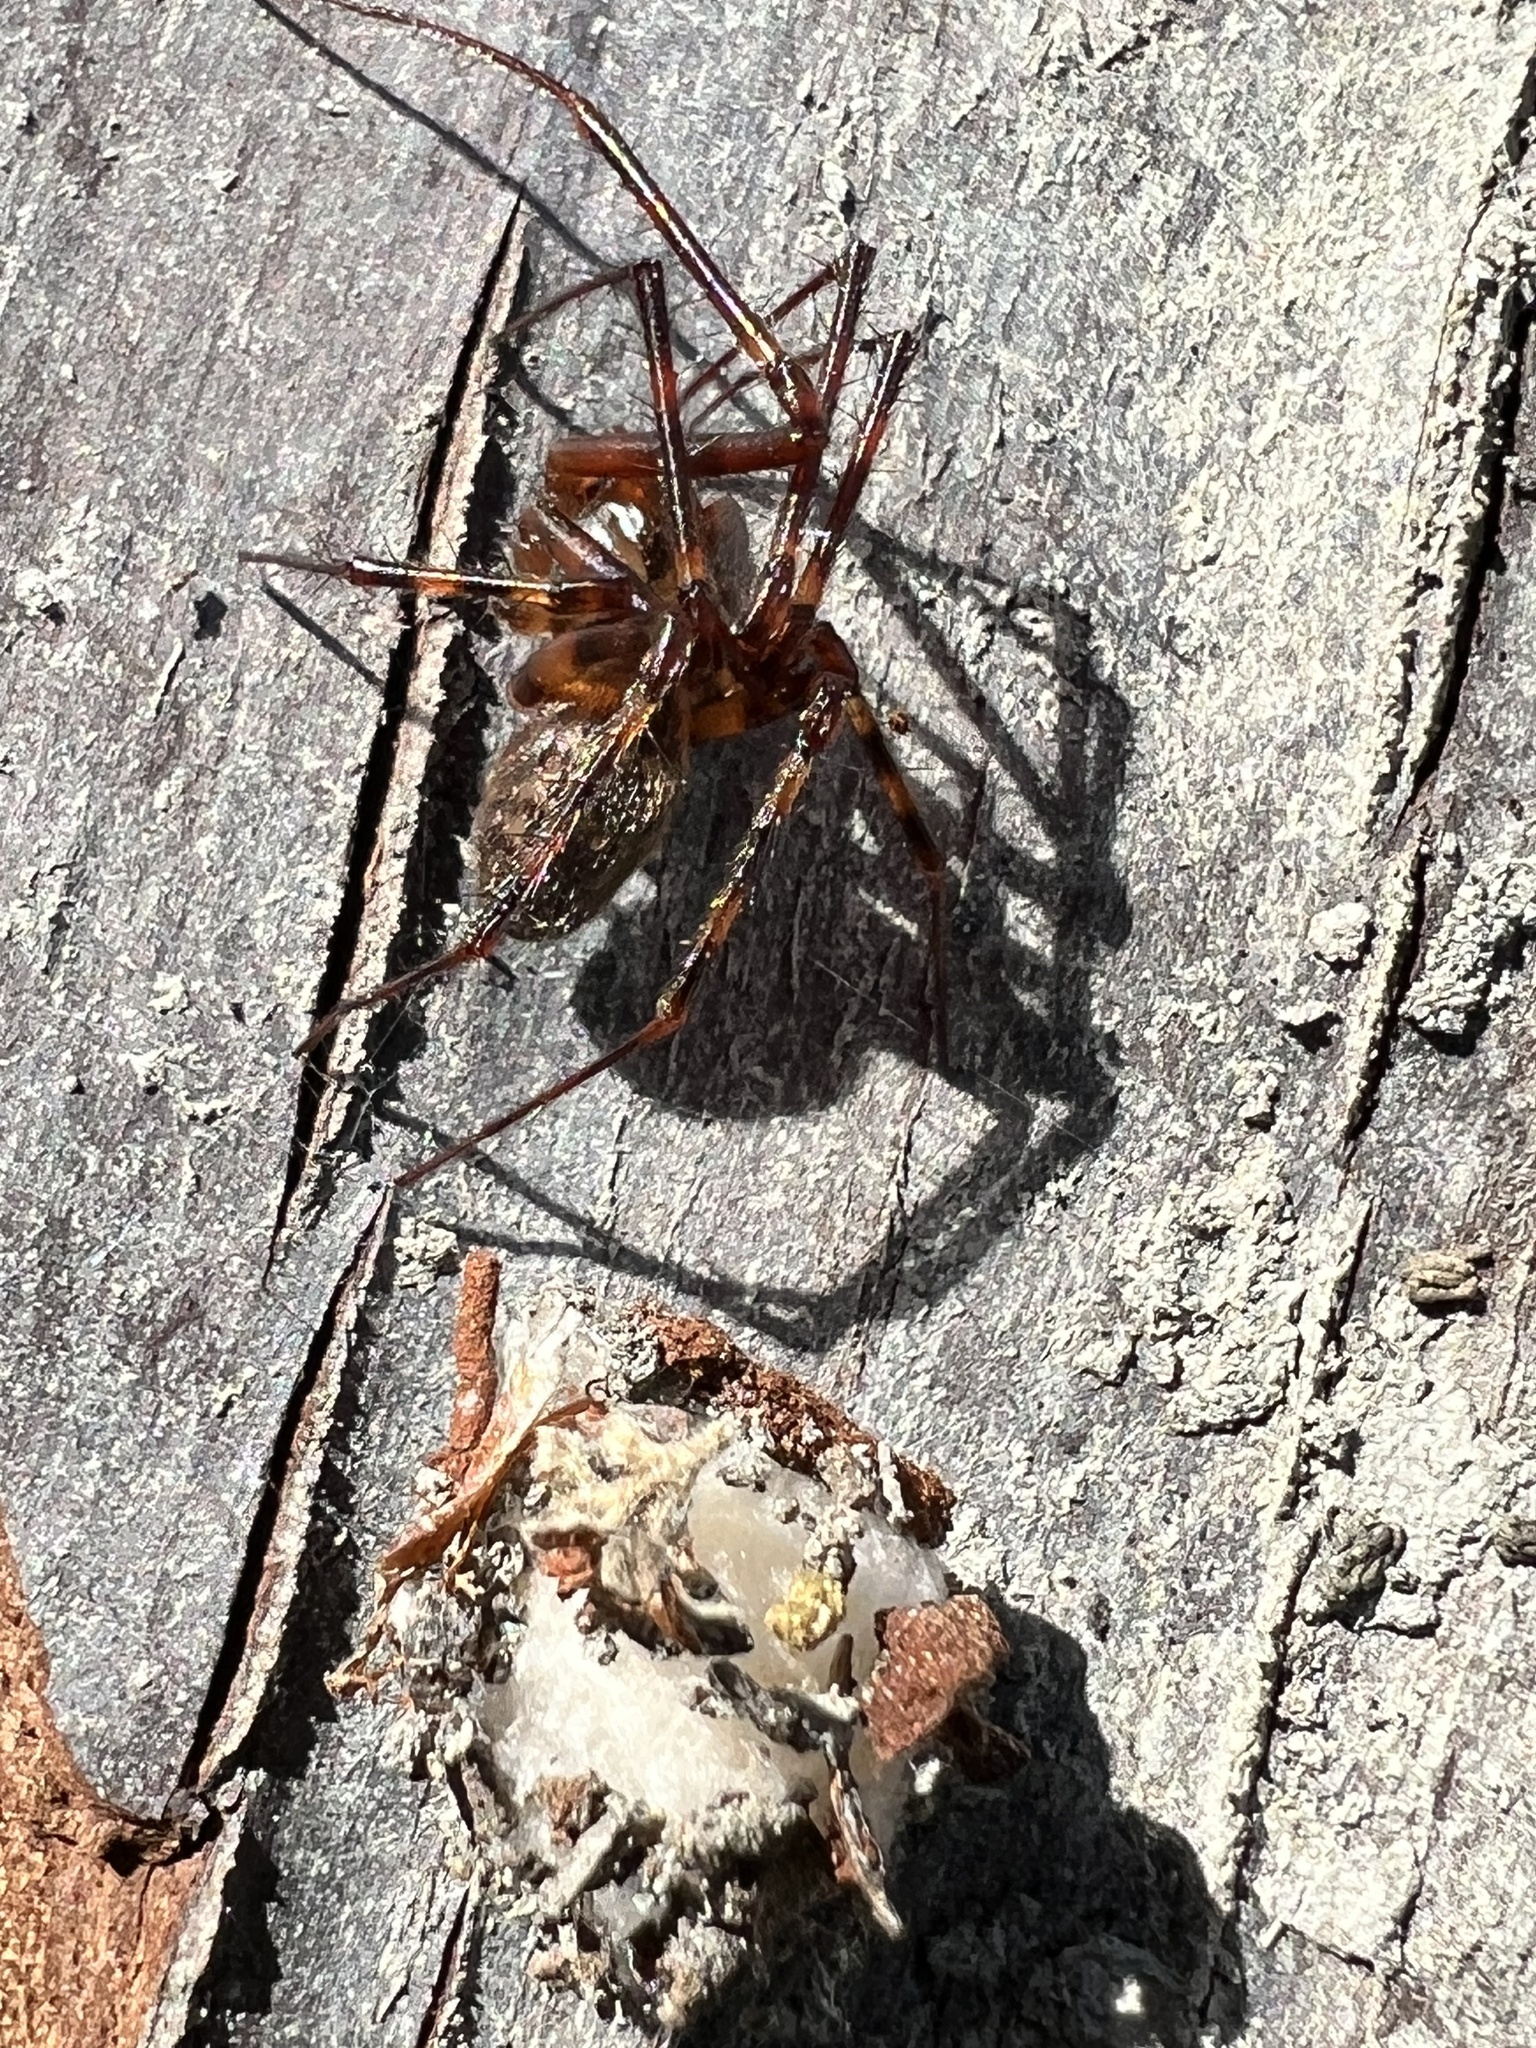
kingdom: Animalia
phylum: Arthropoda
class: Arachnida
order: Araneae
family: Pimoidae
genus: Pimoa
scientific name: Pimoa altioculata
